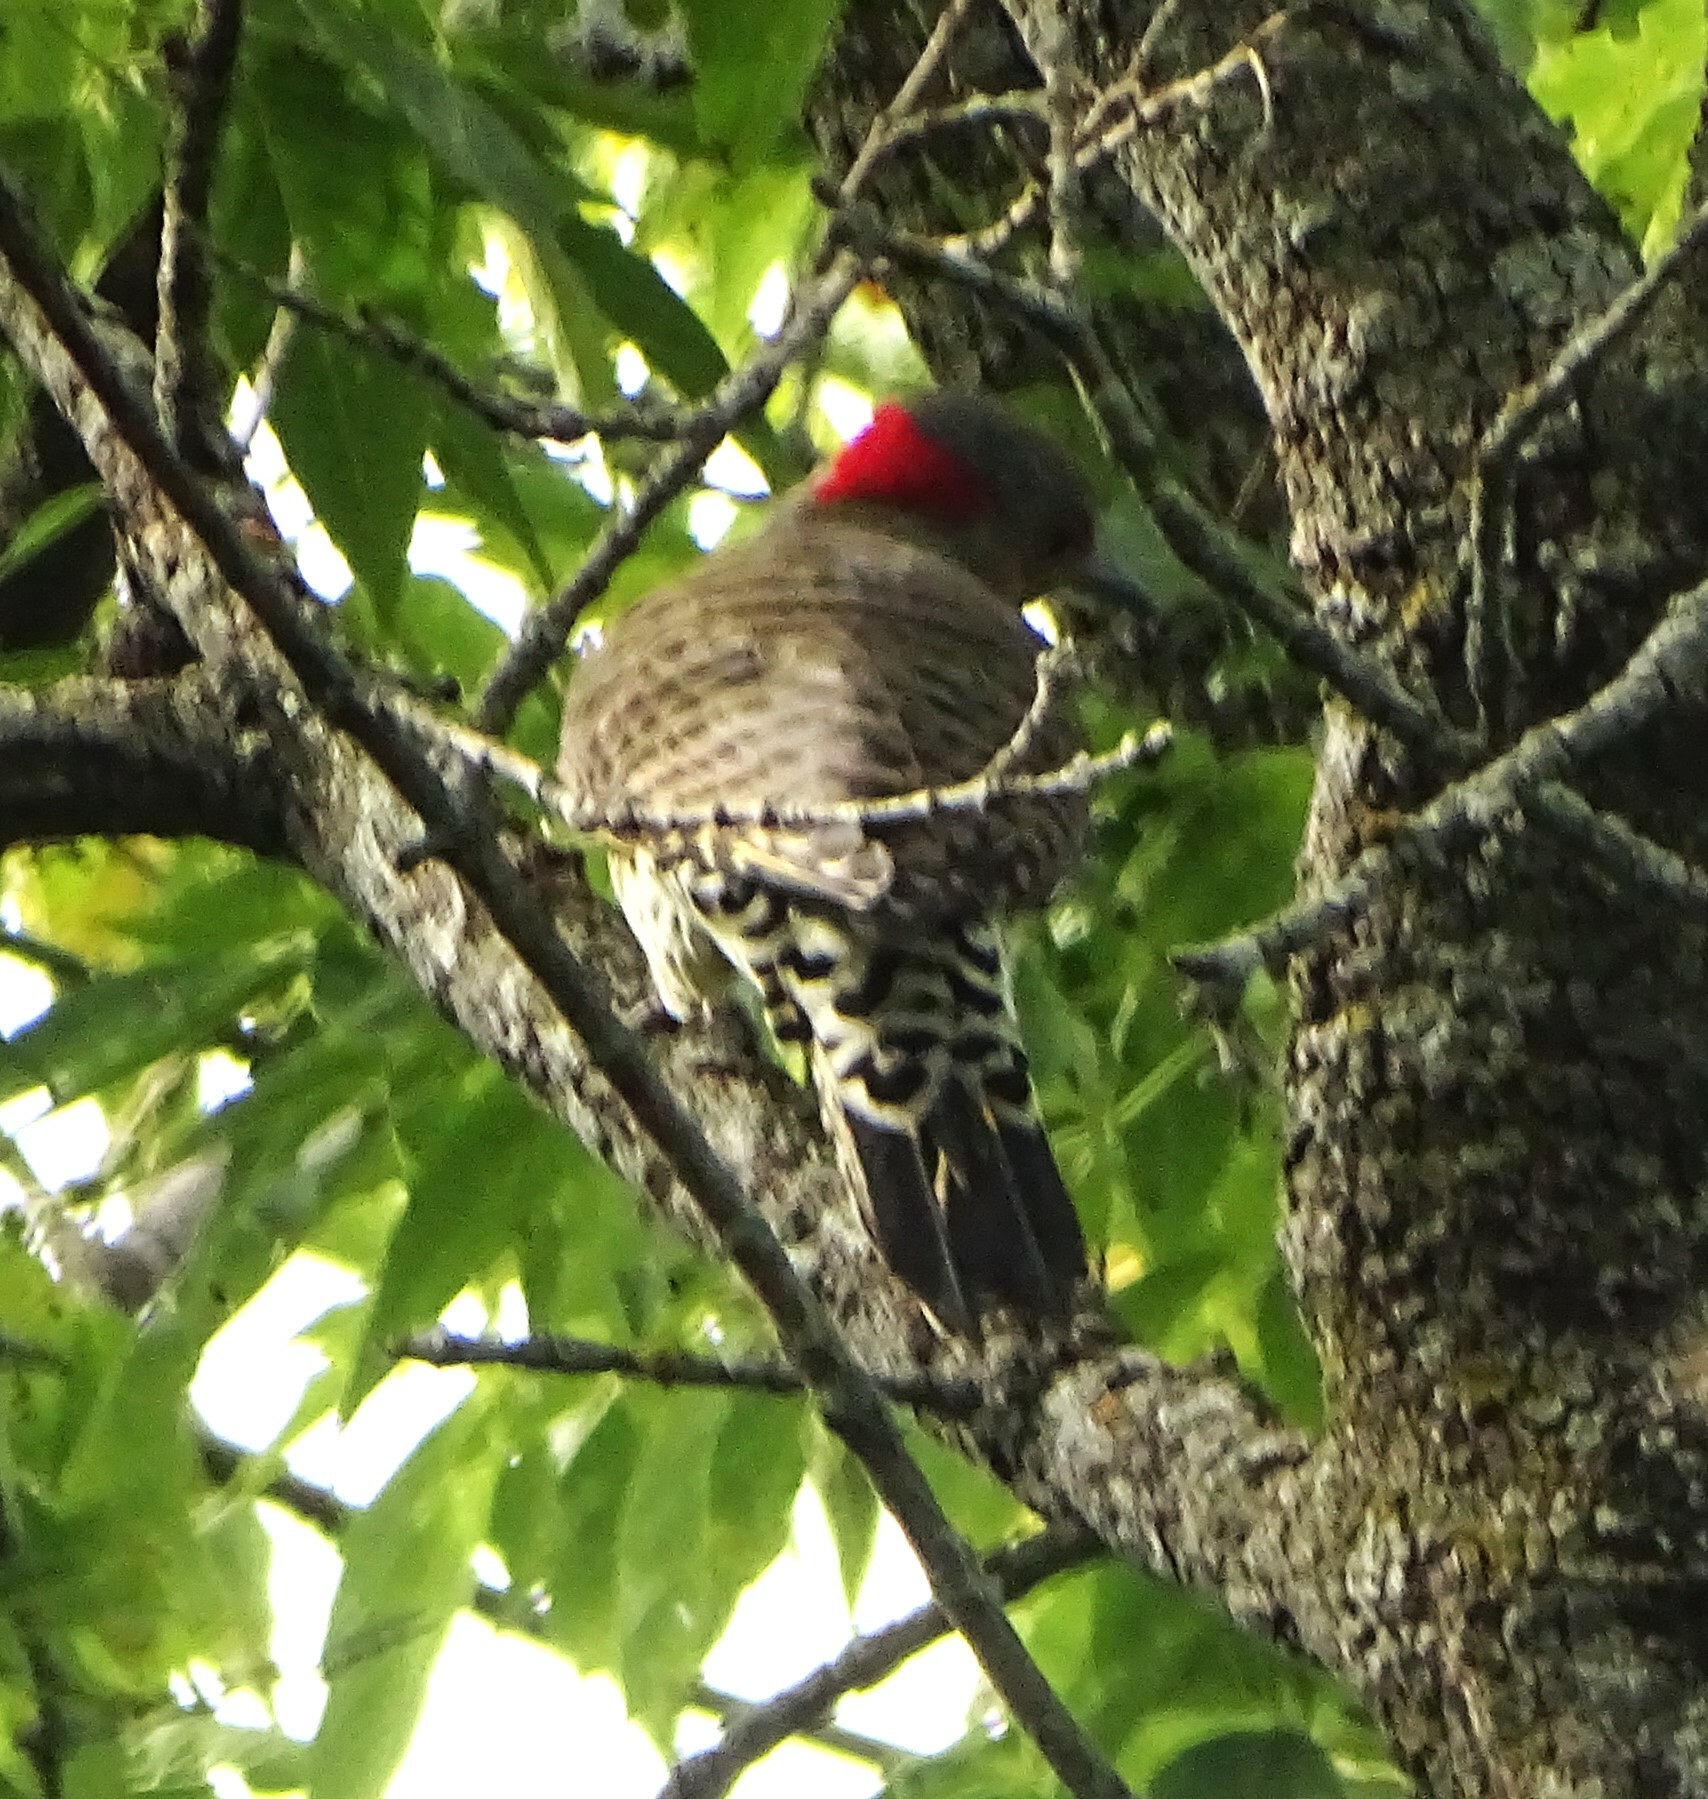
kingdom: Animalia
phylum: Chordata
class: Aves
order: Piciformes
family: Picidae
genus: Colaptes
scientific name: Colaptes auratus
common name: Northern flicker
